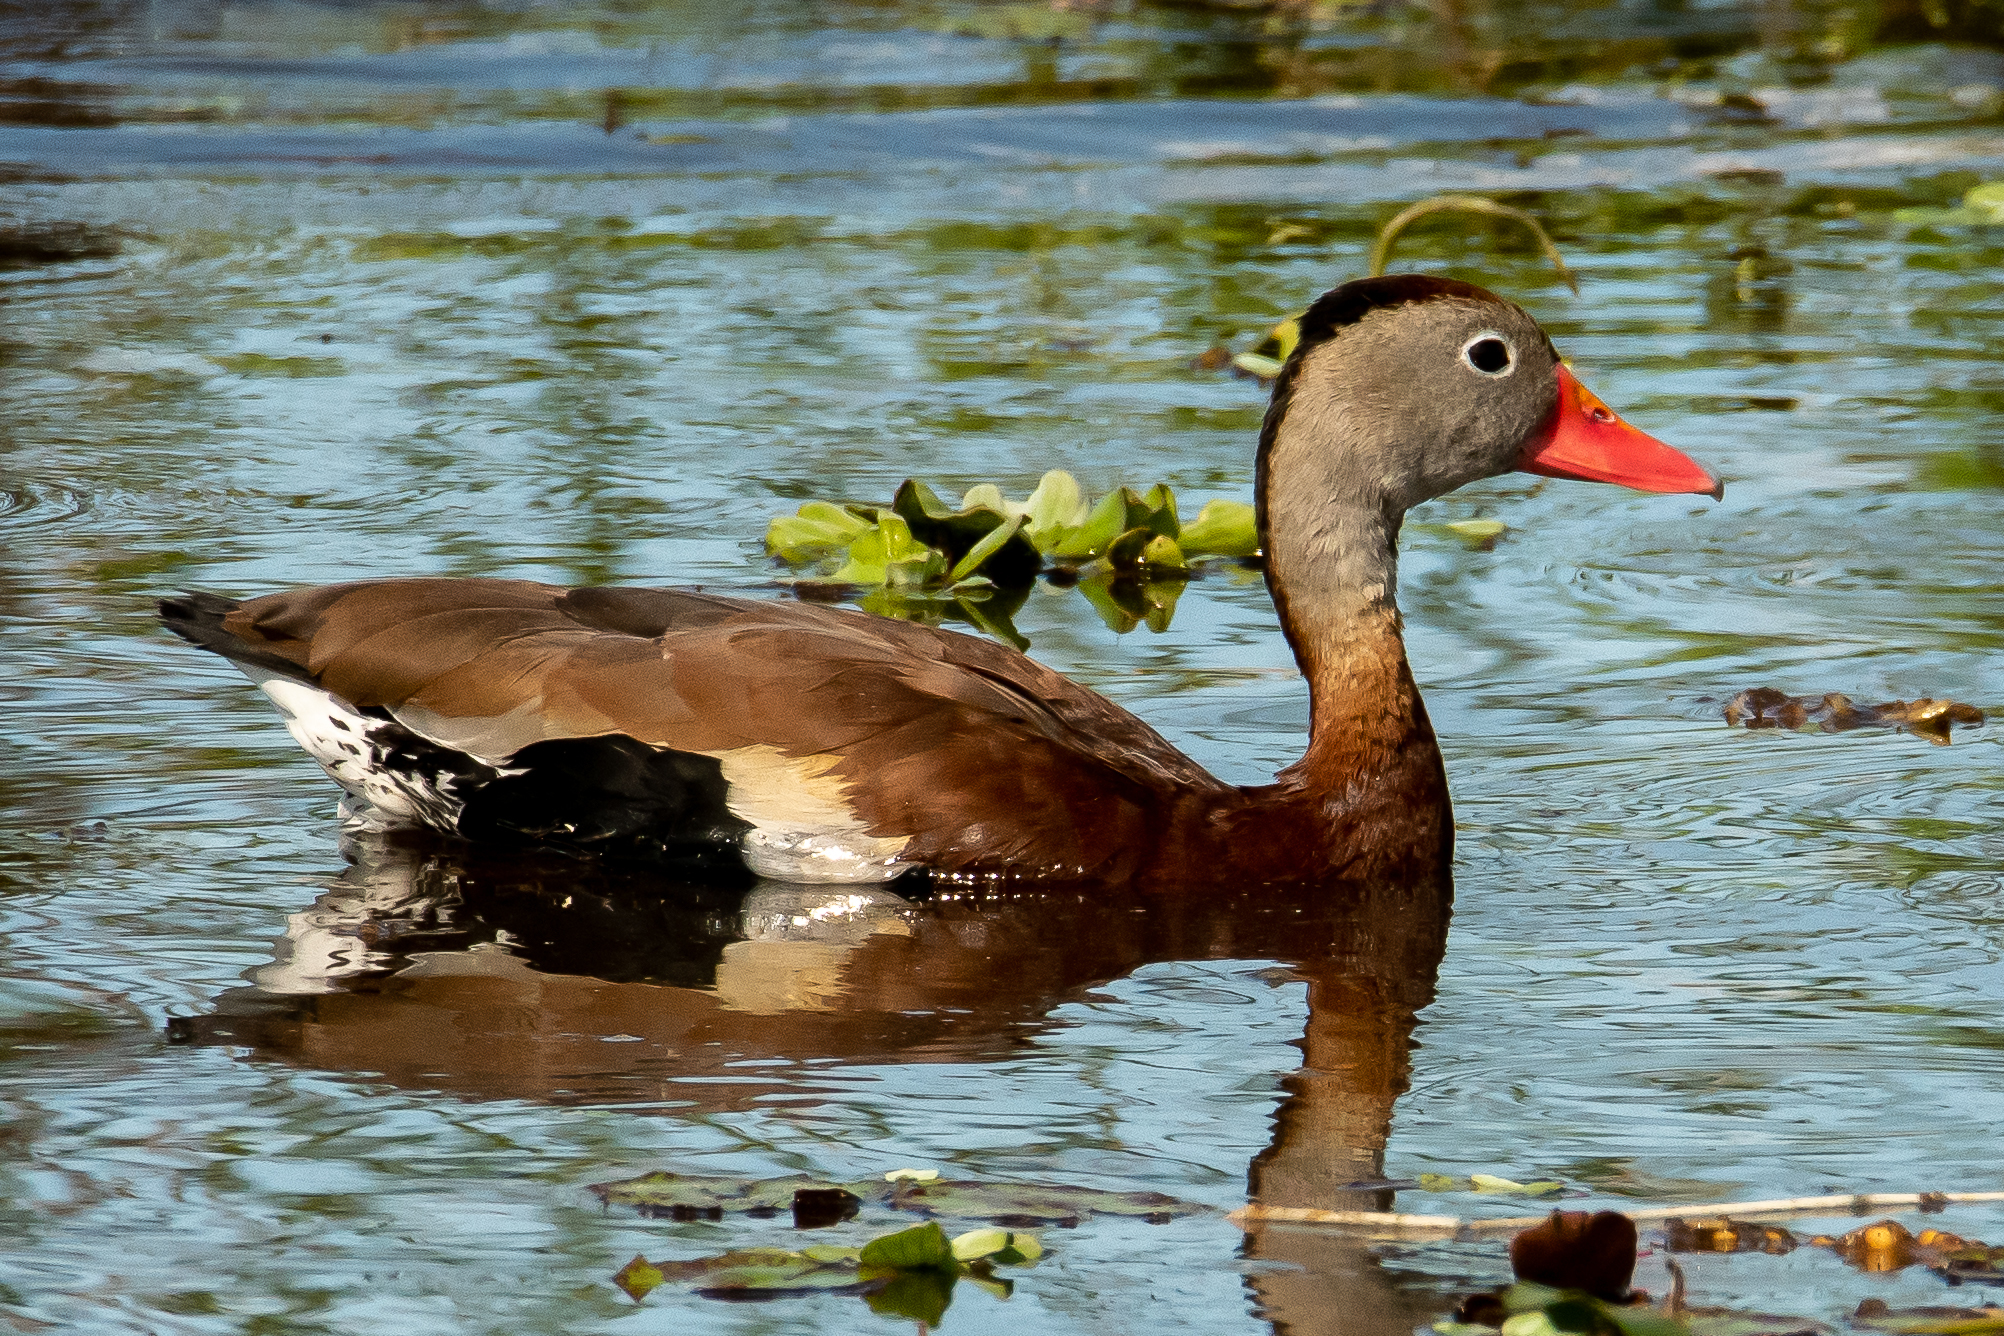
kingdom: Animalia
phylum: Chordata
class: Aves
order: Anseriformes
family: Anatidae
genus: Dendrocygna
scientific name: Dendrocygna autumnalis
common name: Black-bellied whistling duck
